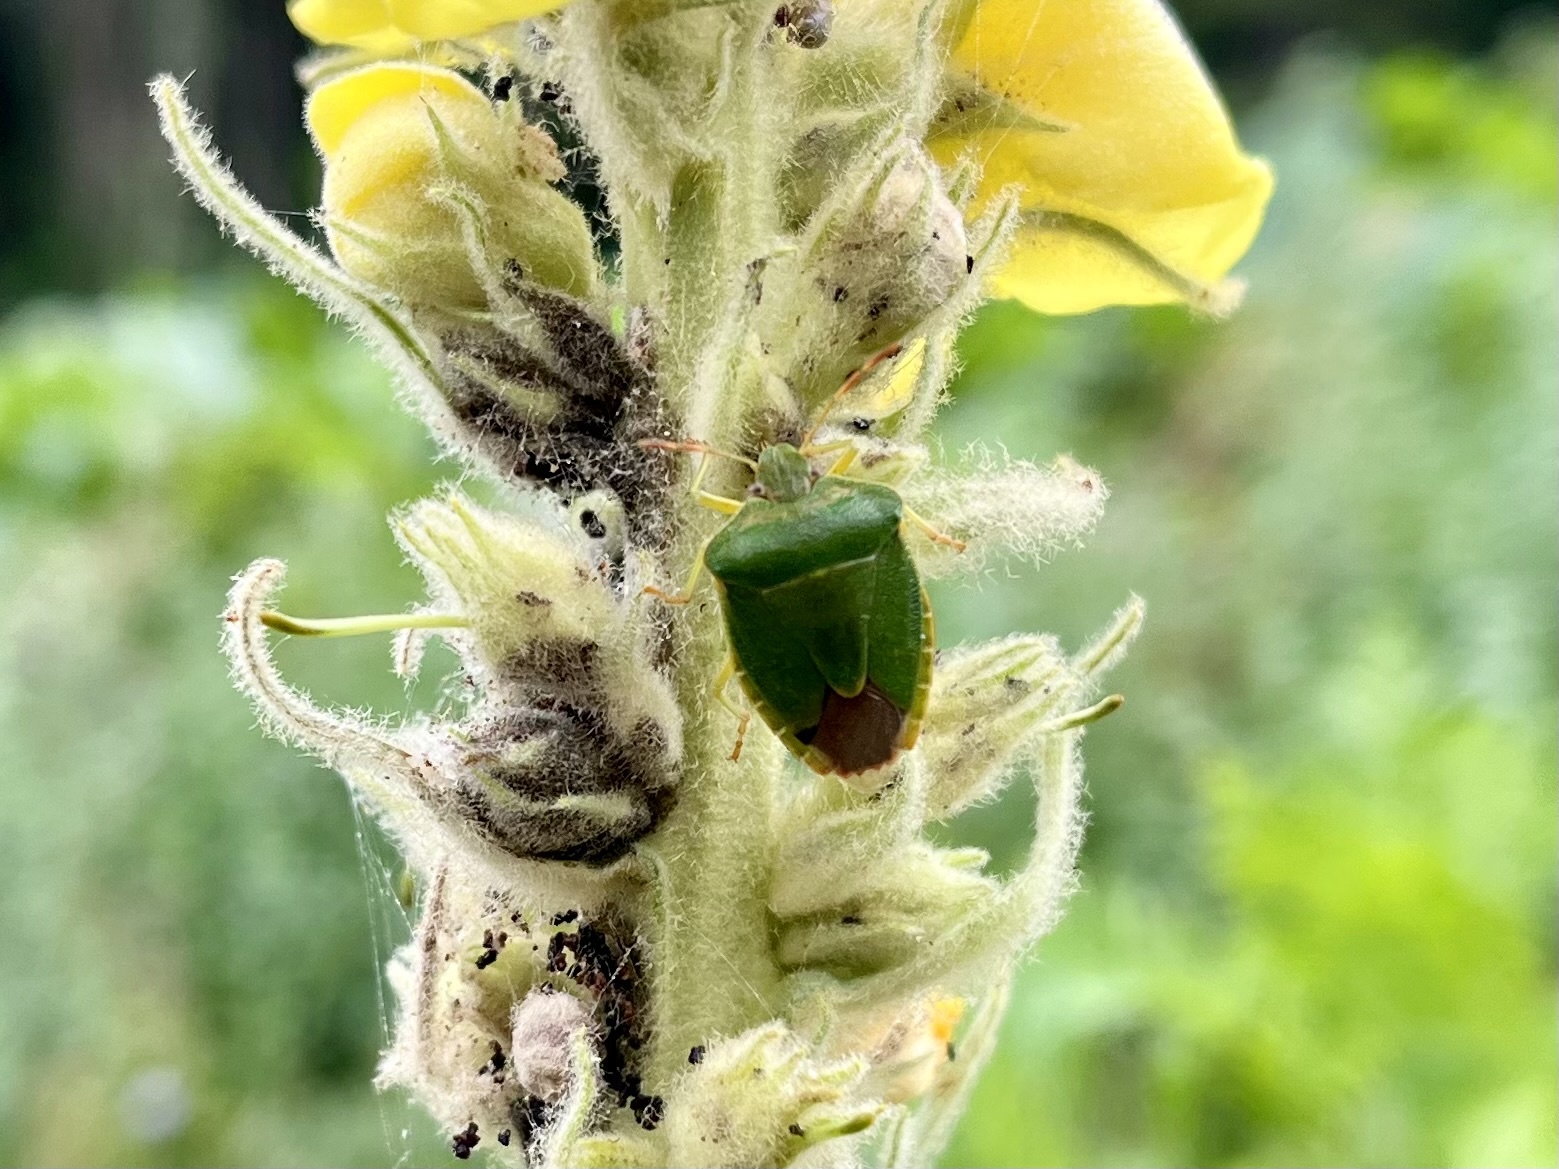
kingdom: Animalia
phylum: Arthropoda
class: Insecta
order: Hemiptera
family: Pentatomidae
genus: Palomena
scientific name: Palomena prasina
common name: Green shieldbug
